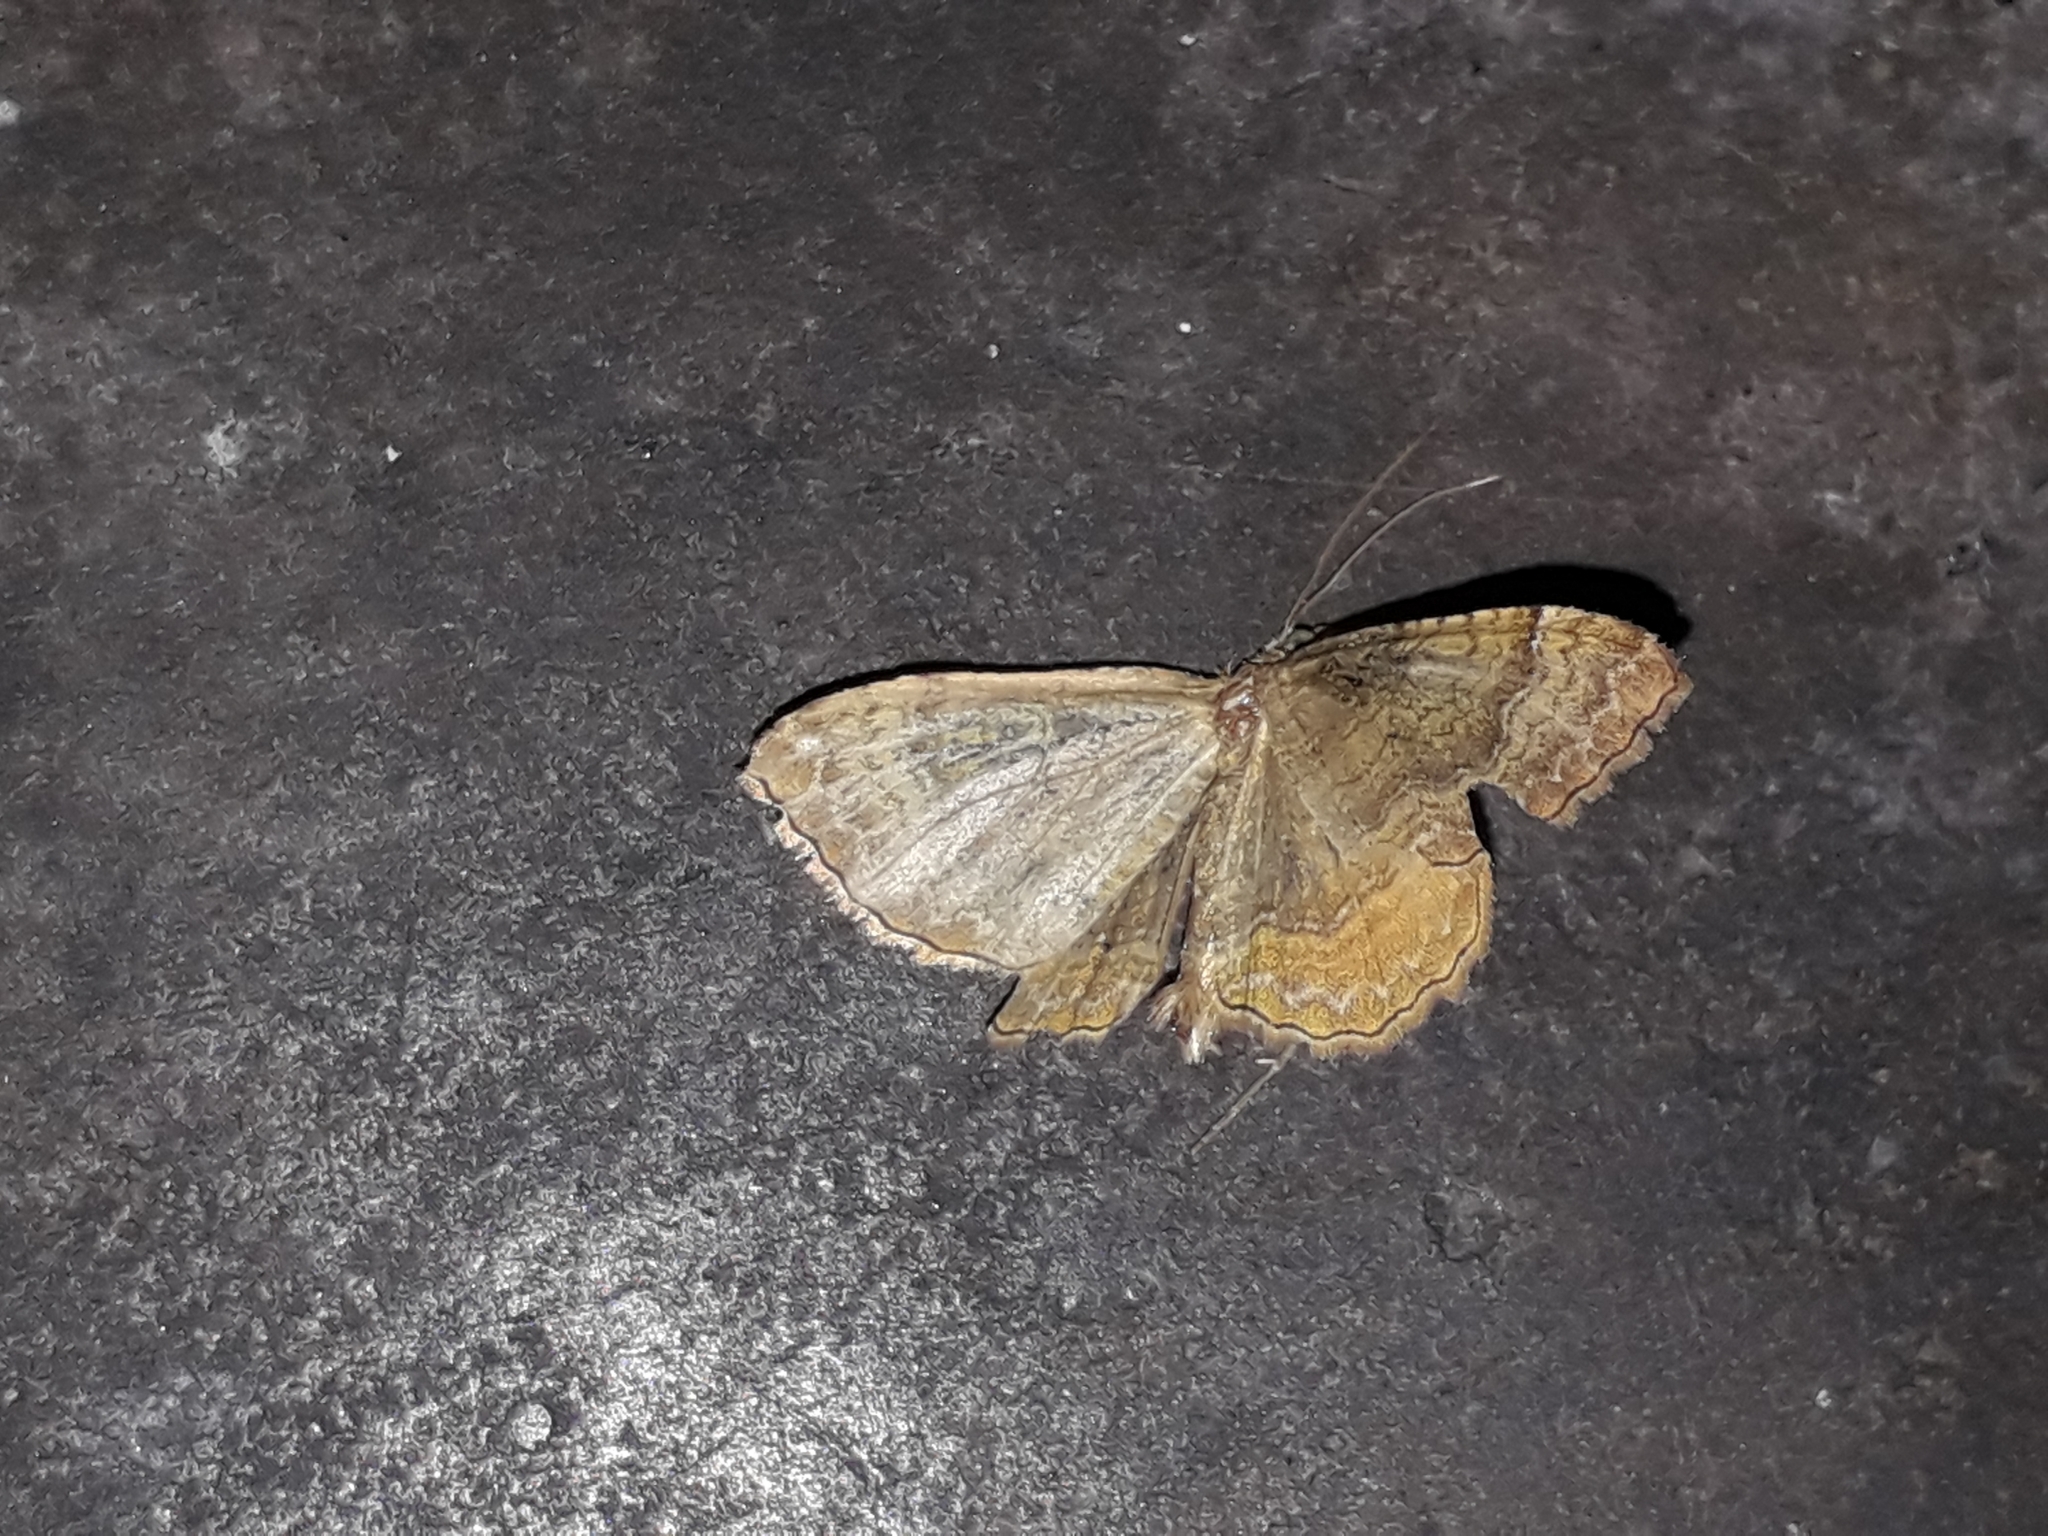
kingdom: Animalia
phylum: Arthropoda
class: Insecta
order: Lepidoptera
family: Geometridae
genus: Camptogramma
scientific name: Camptogramma bilineata
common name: Yellow shell
